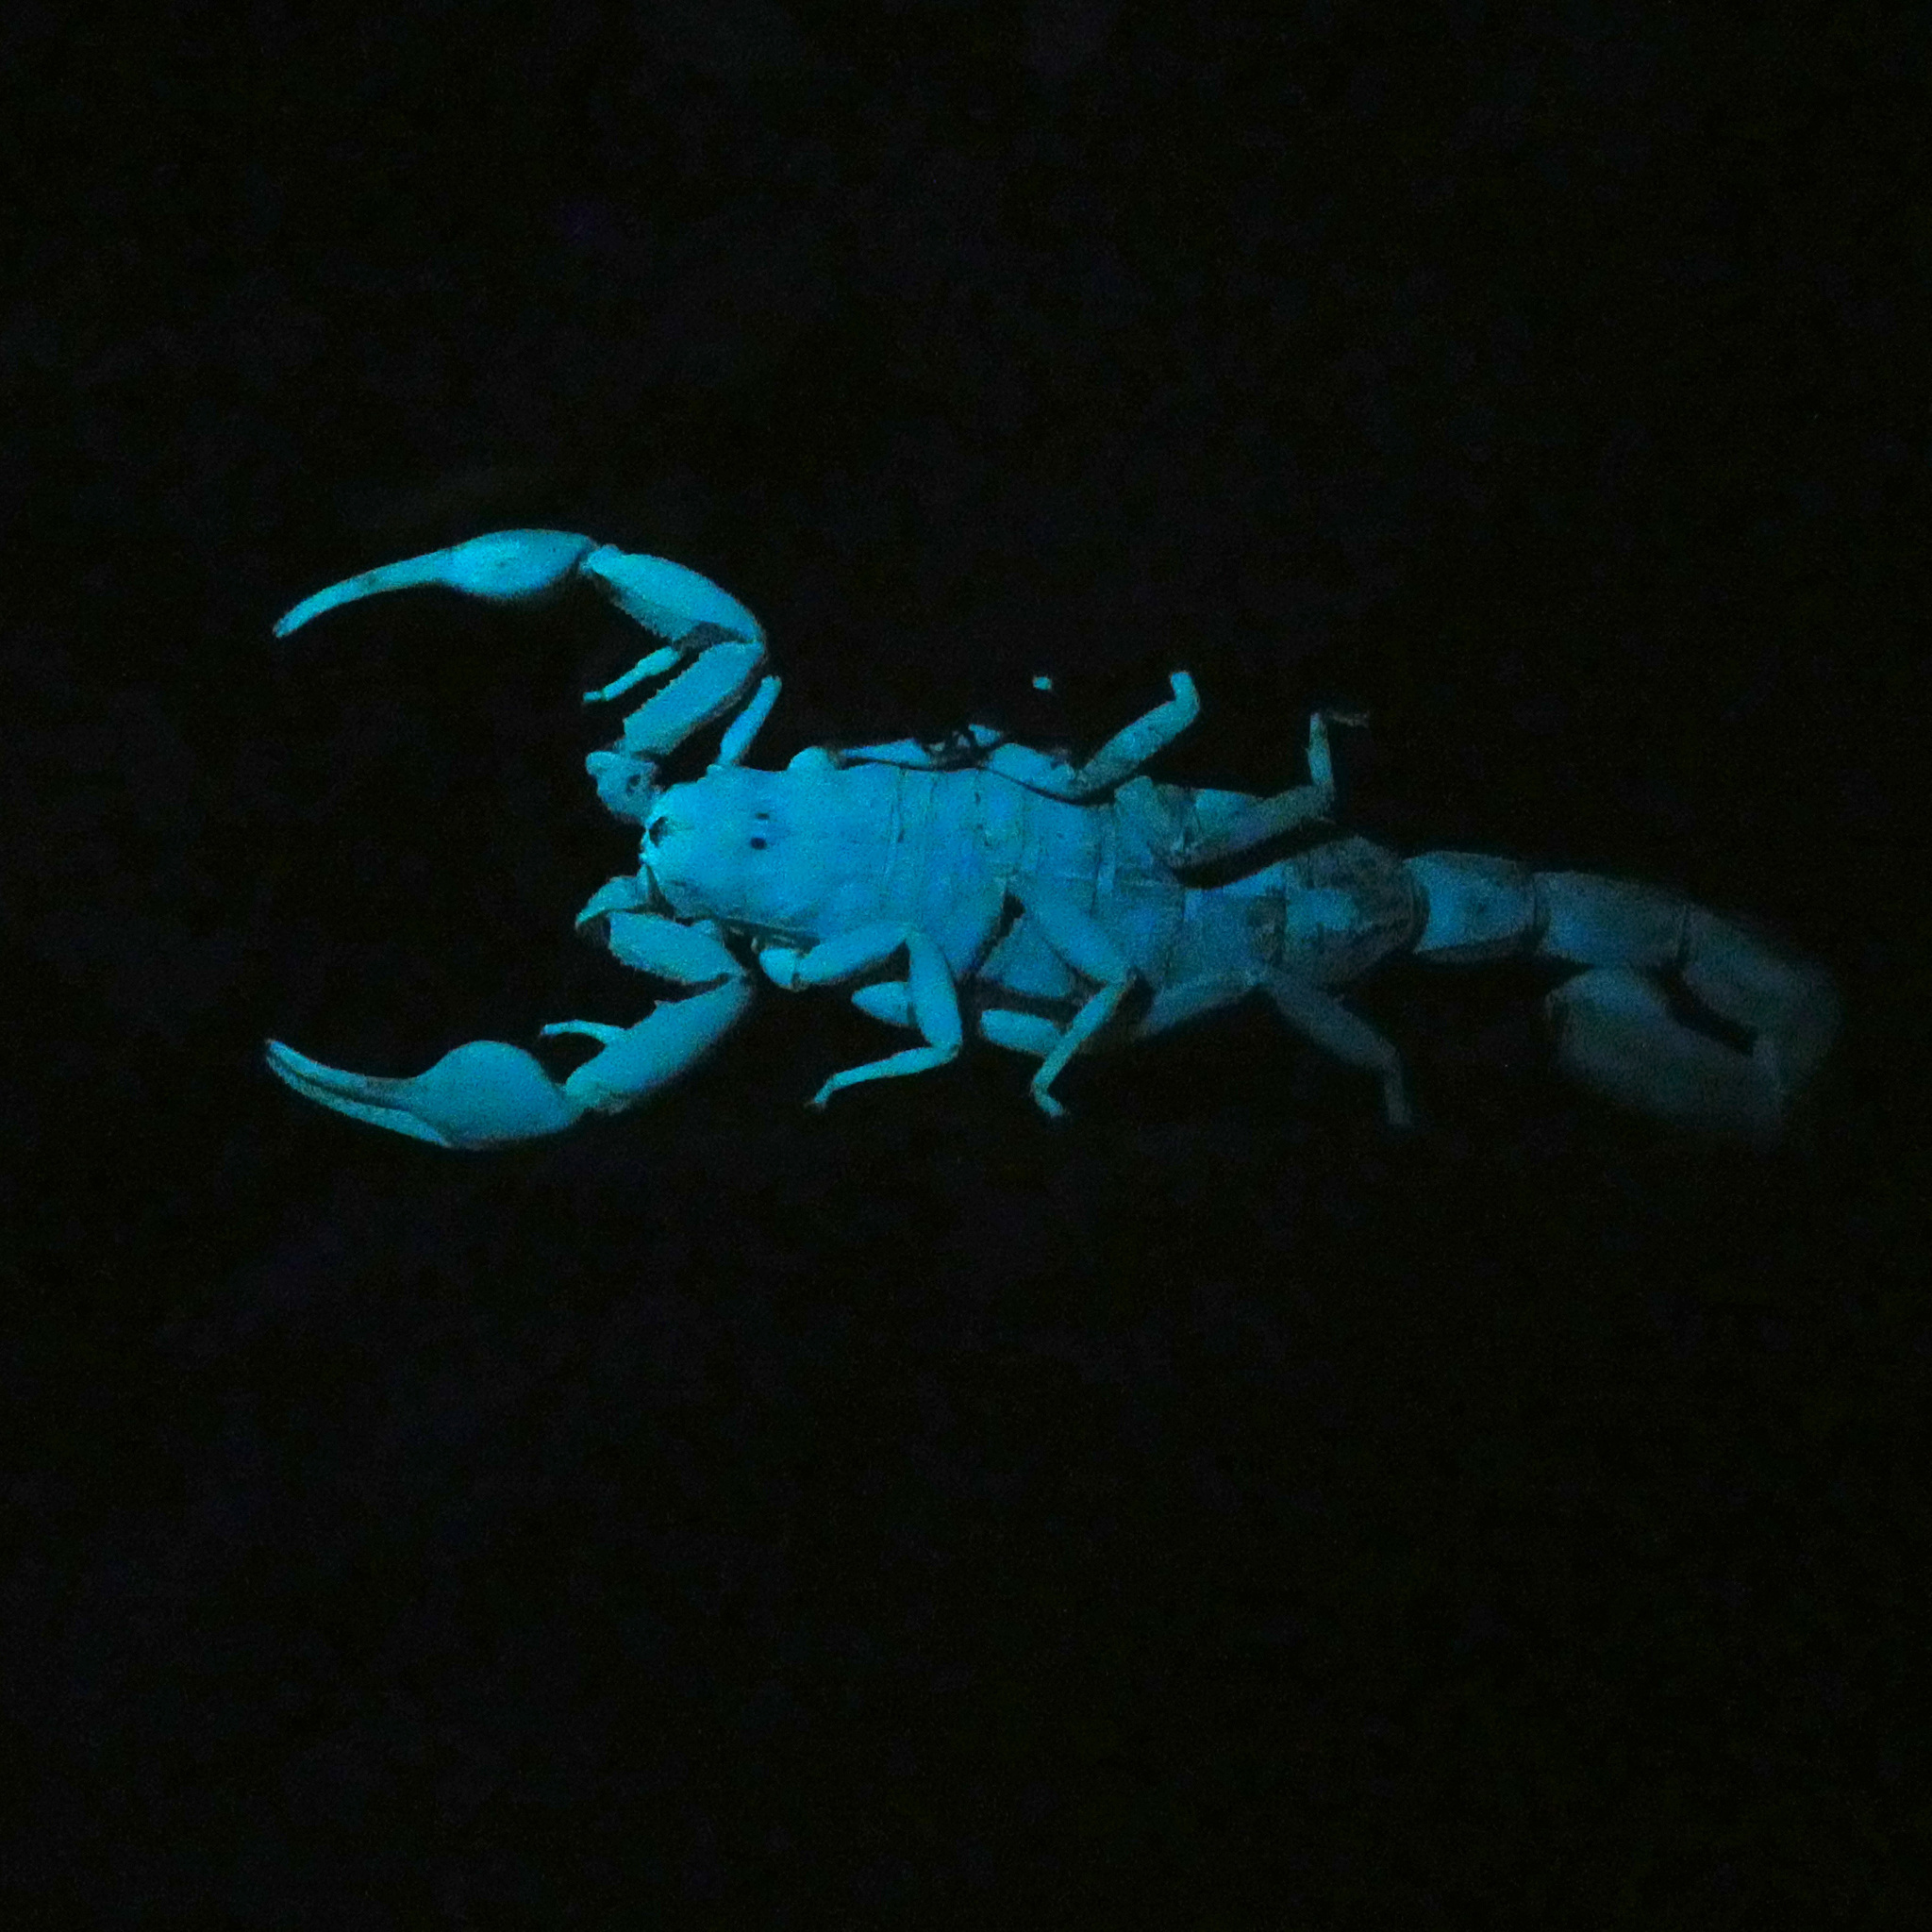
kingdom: Animalia
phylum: Arthropoda
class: Arachnida
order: Scorpiones
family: Buthidae
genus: Uroplectes
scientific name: Uroplectes planimanus
